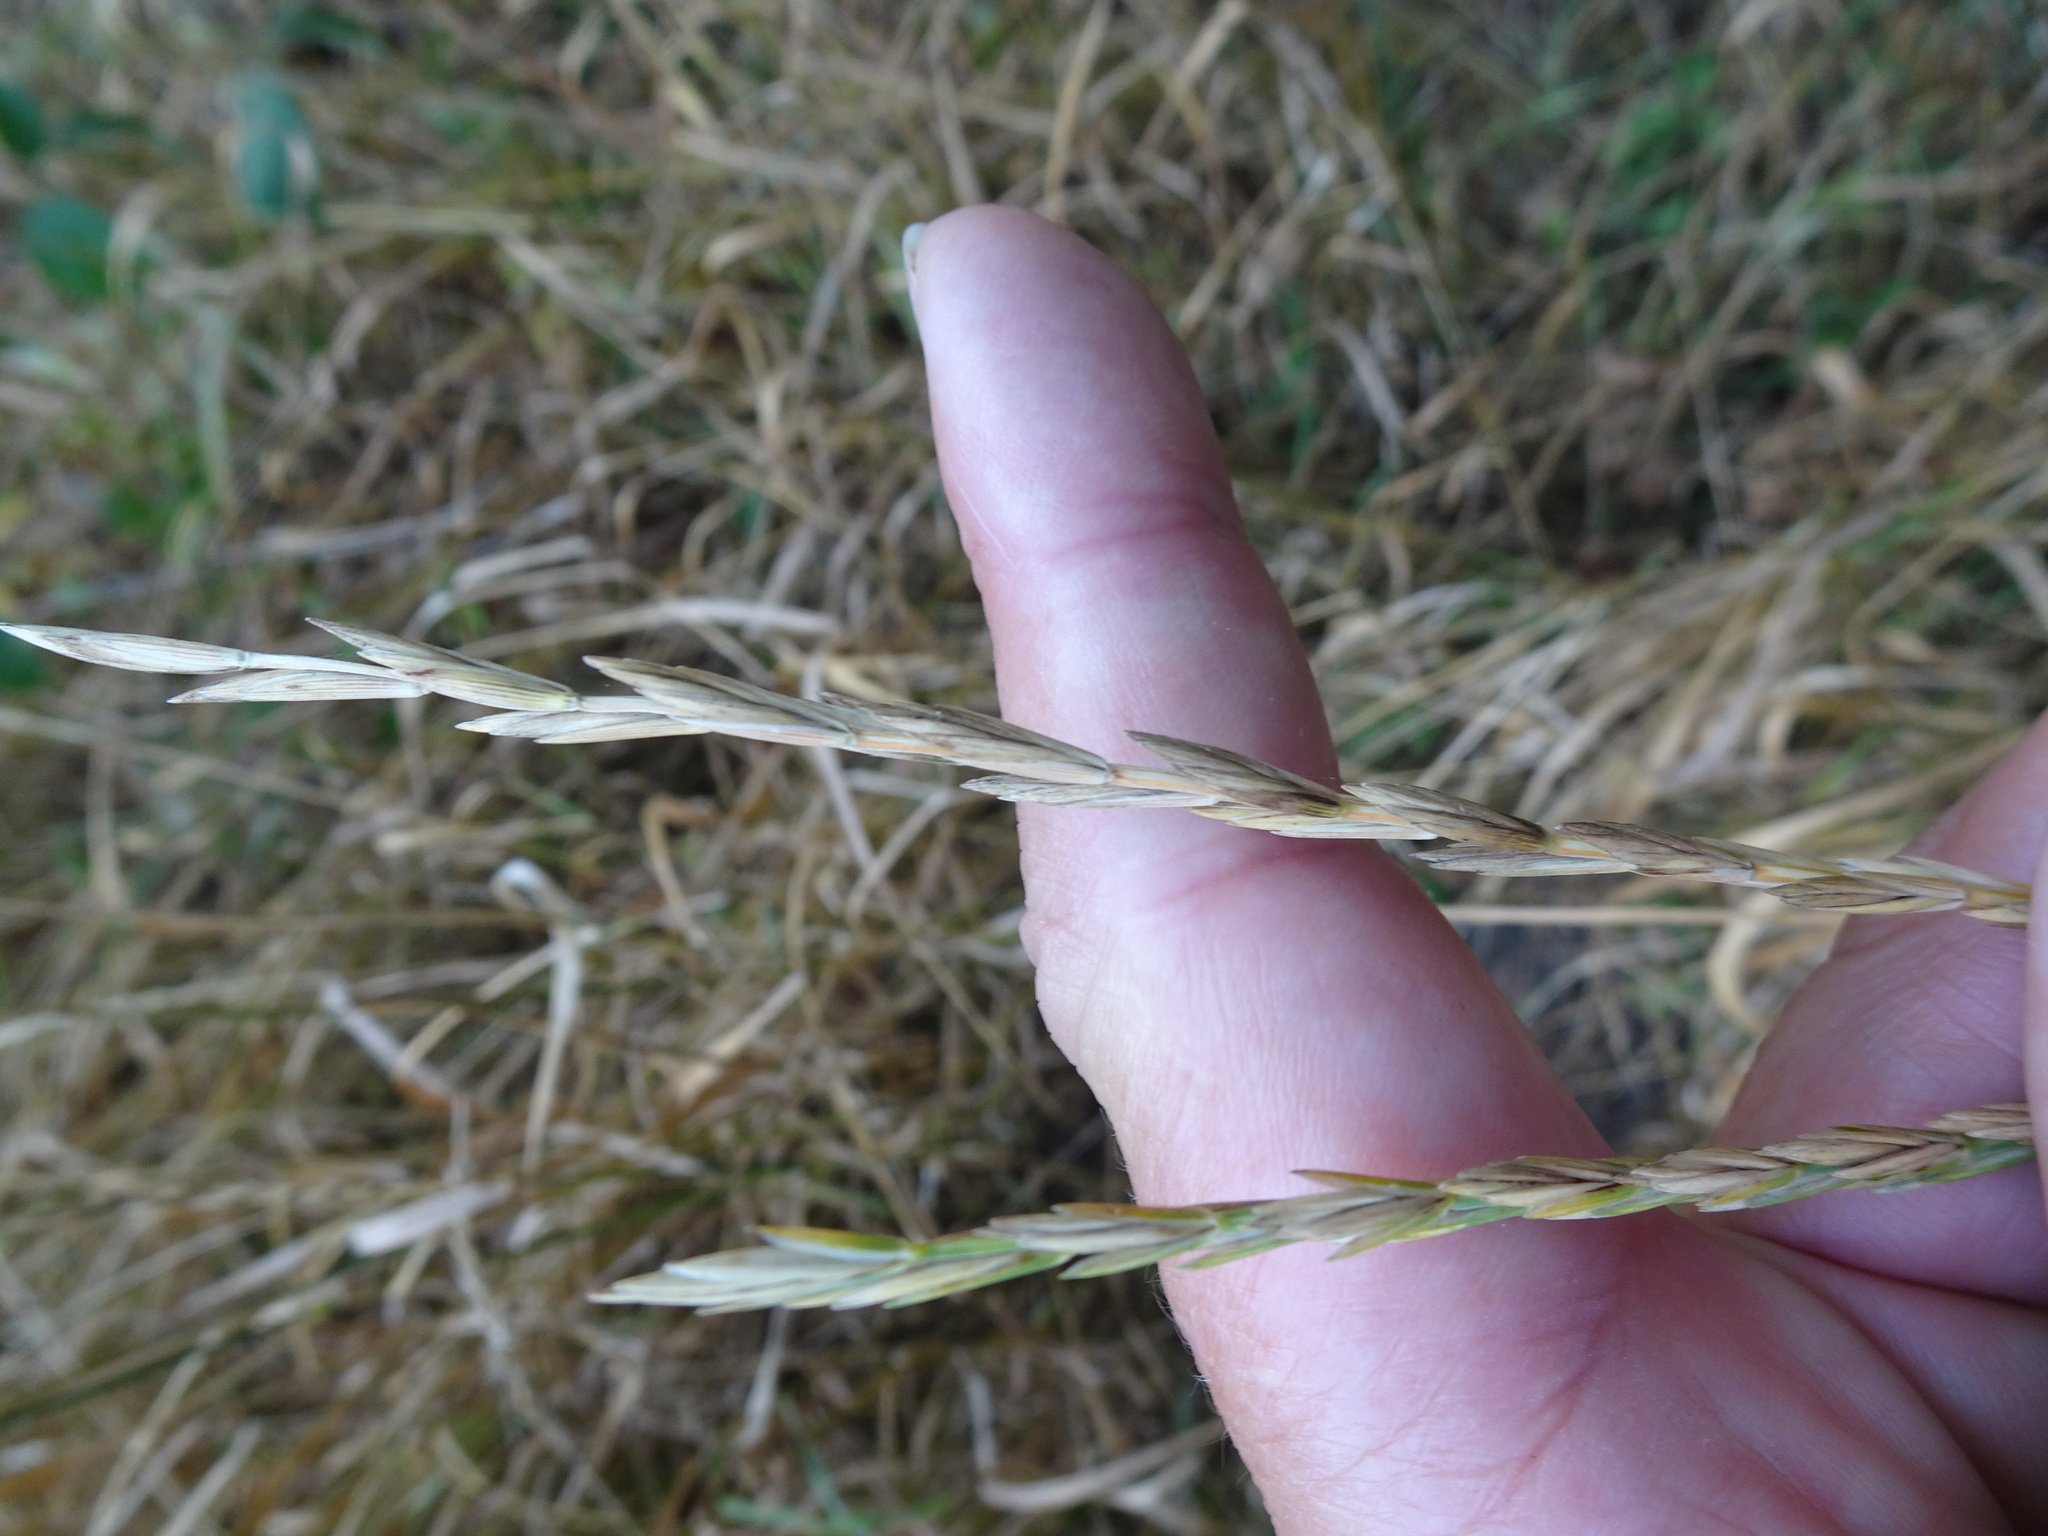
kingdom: Plantae
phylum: Tracheophyta
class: Liliopsida
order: Poales
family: Poaceae
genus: Elymus
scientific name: Elymus repens
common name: Quackgrass
